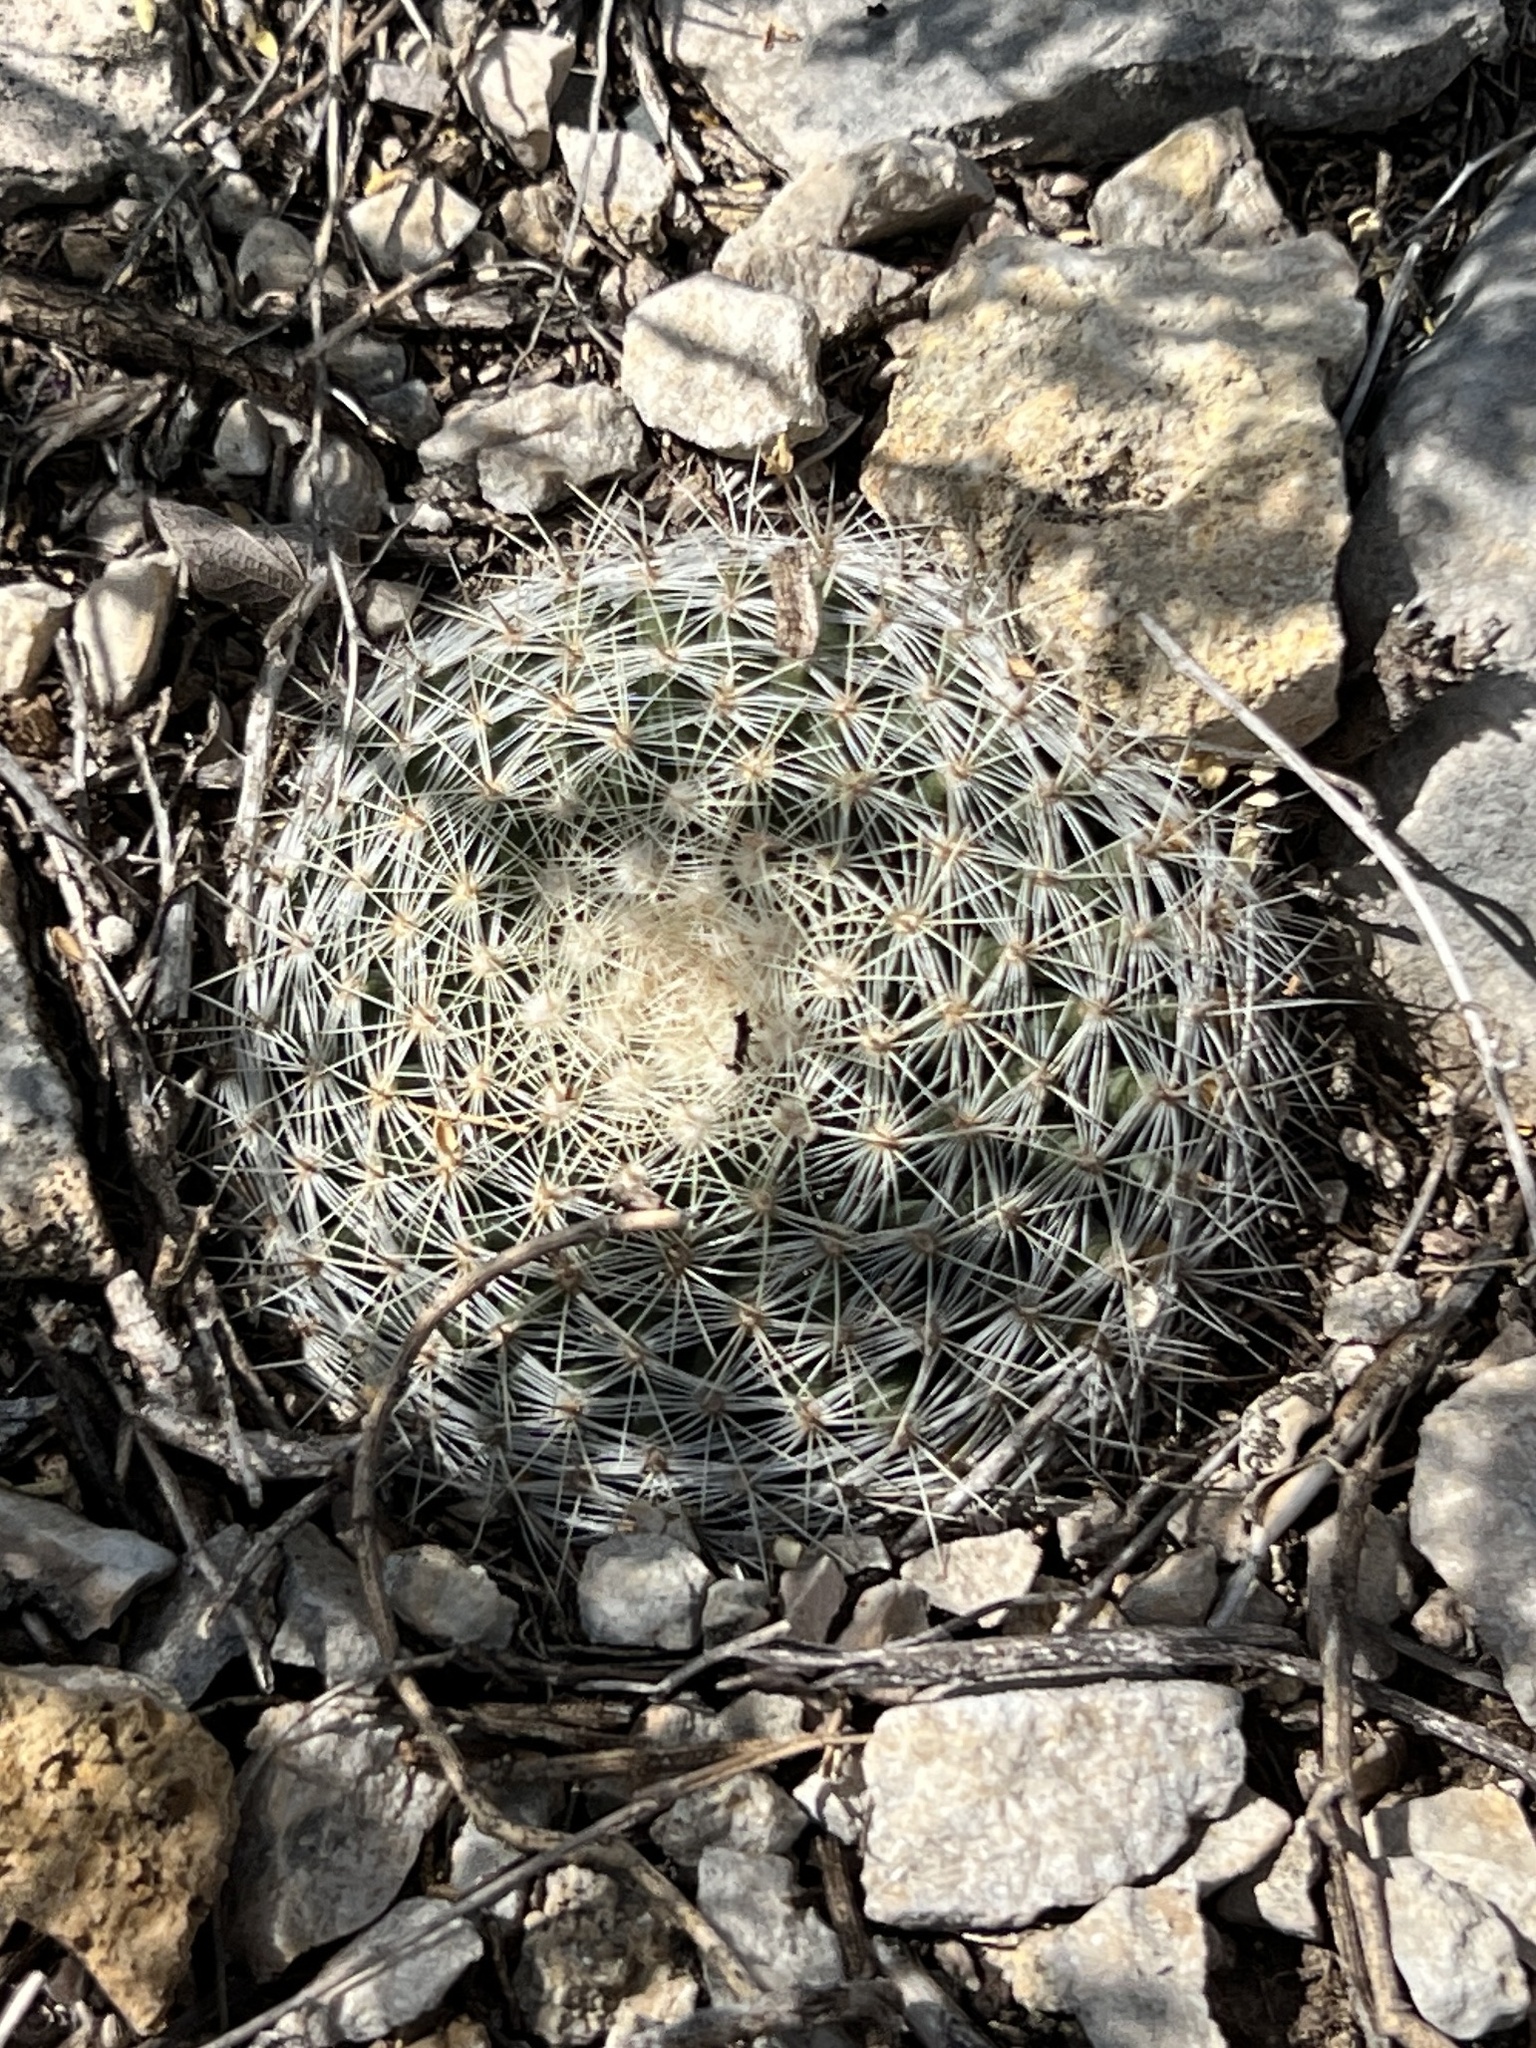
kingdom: Plantae
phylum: Tracheophyta
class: Magnoliopsida
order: Caryophyllales
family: Cactaceae
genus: Mammillaria
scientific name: Mammillaria heyderi
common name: Little nipple cactus
